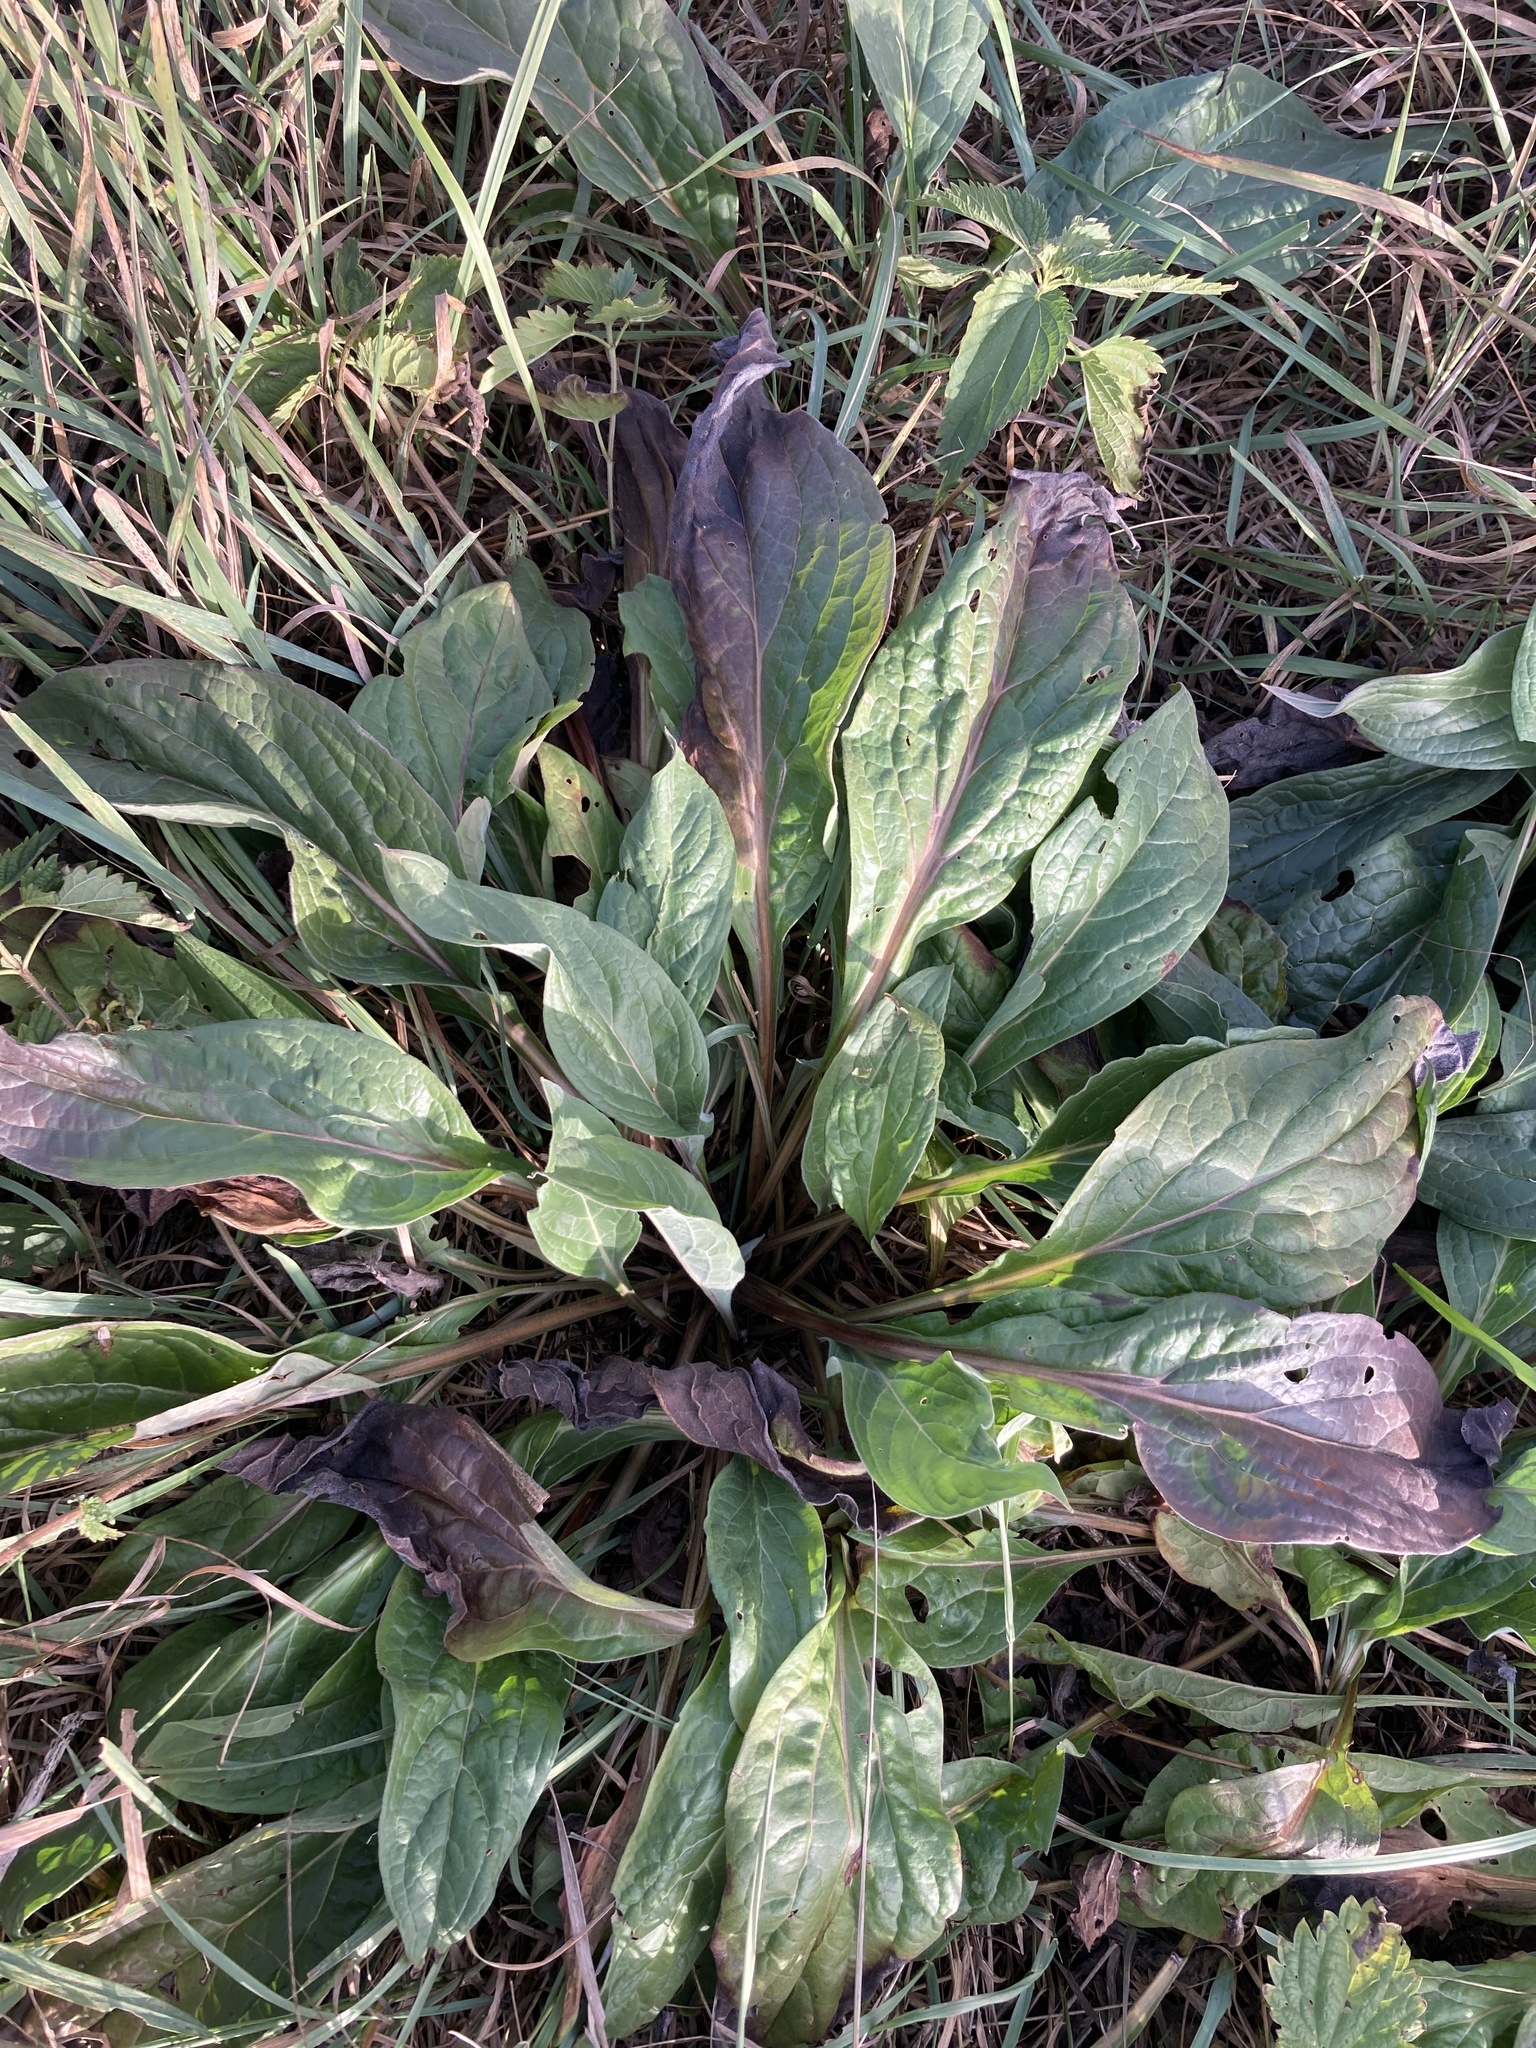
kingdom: Plantae
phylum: Tracheophyta
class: Magnoliopsida
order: Boraginales
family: Boraginaceae
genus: Cynoglossum
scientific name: Cynoglossum officinale
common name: Hound's-tongue
